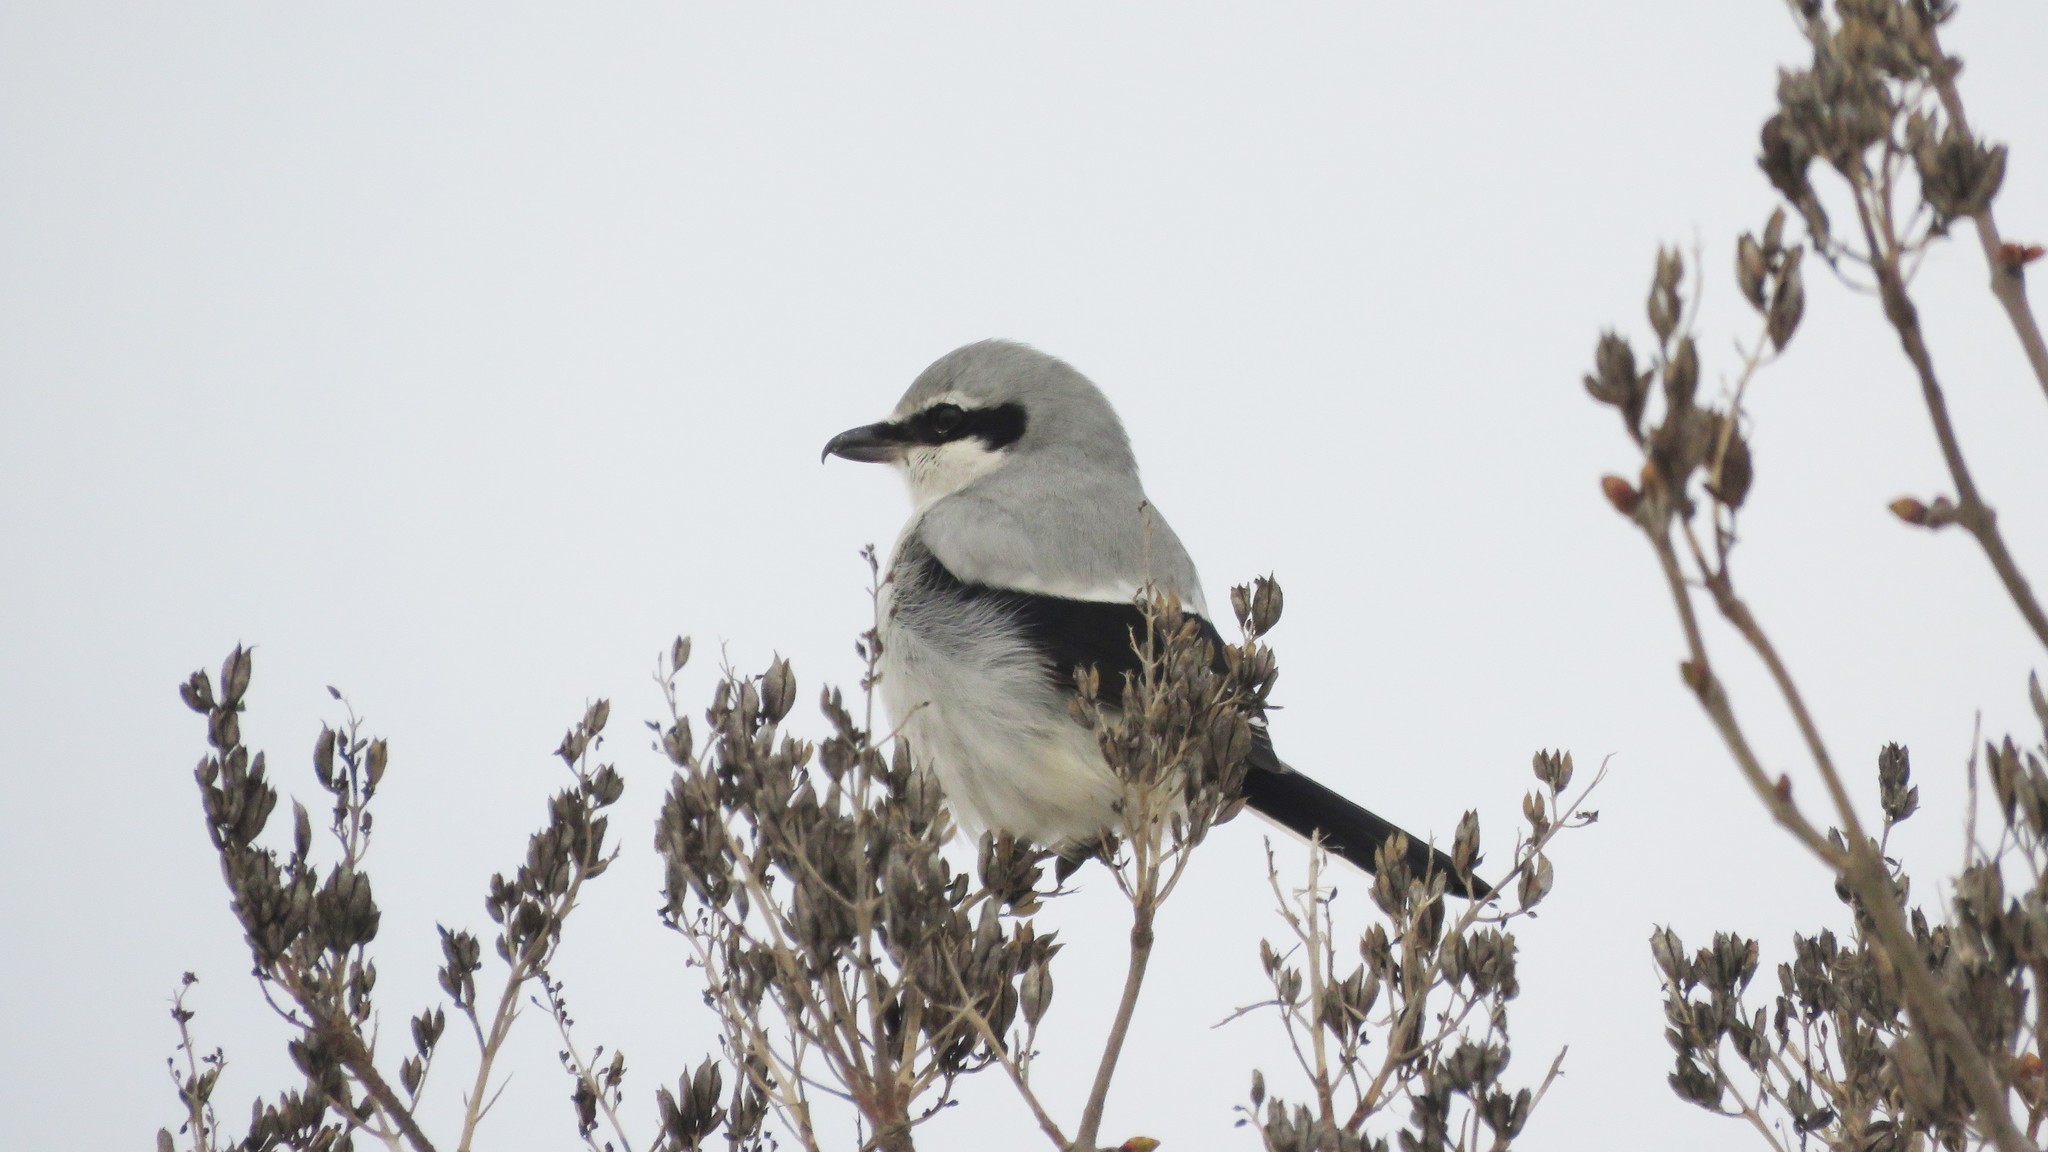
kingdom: Animalia
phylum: Chordata
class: Aves
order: Passeriformes
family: Laniidae
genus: Lanius
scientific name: Lanius borealis
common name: Northern shrike
